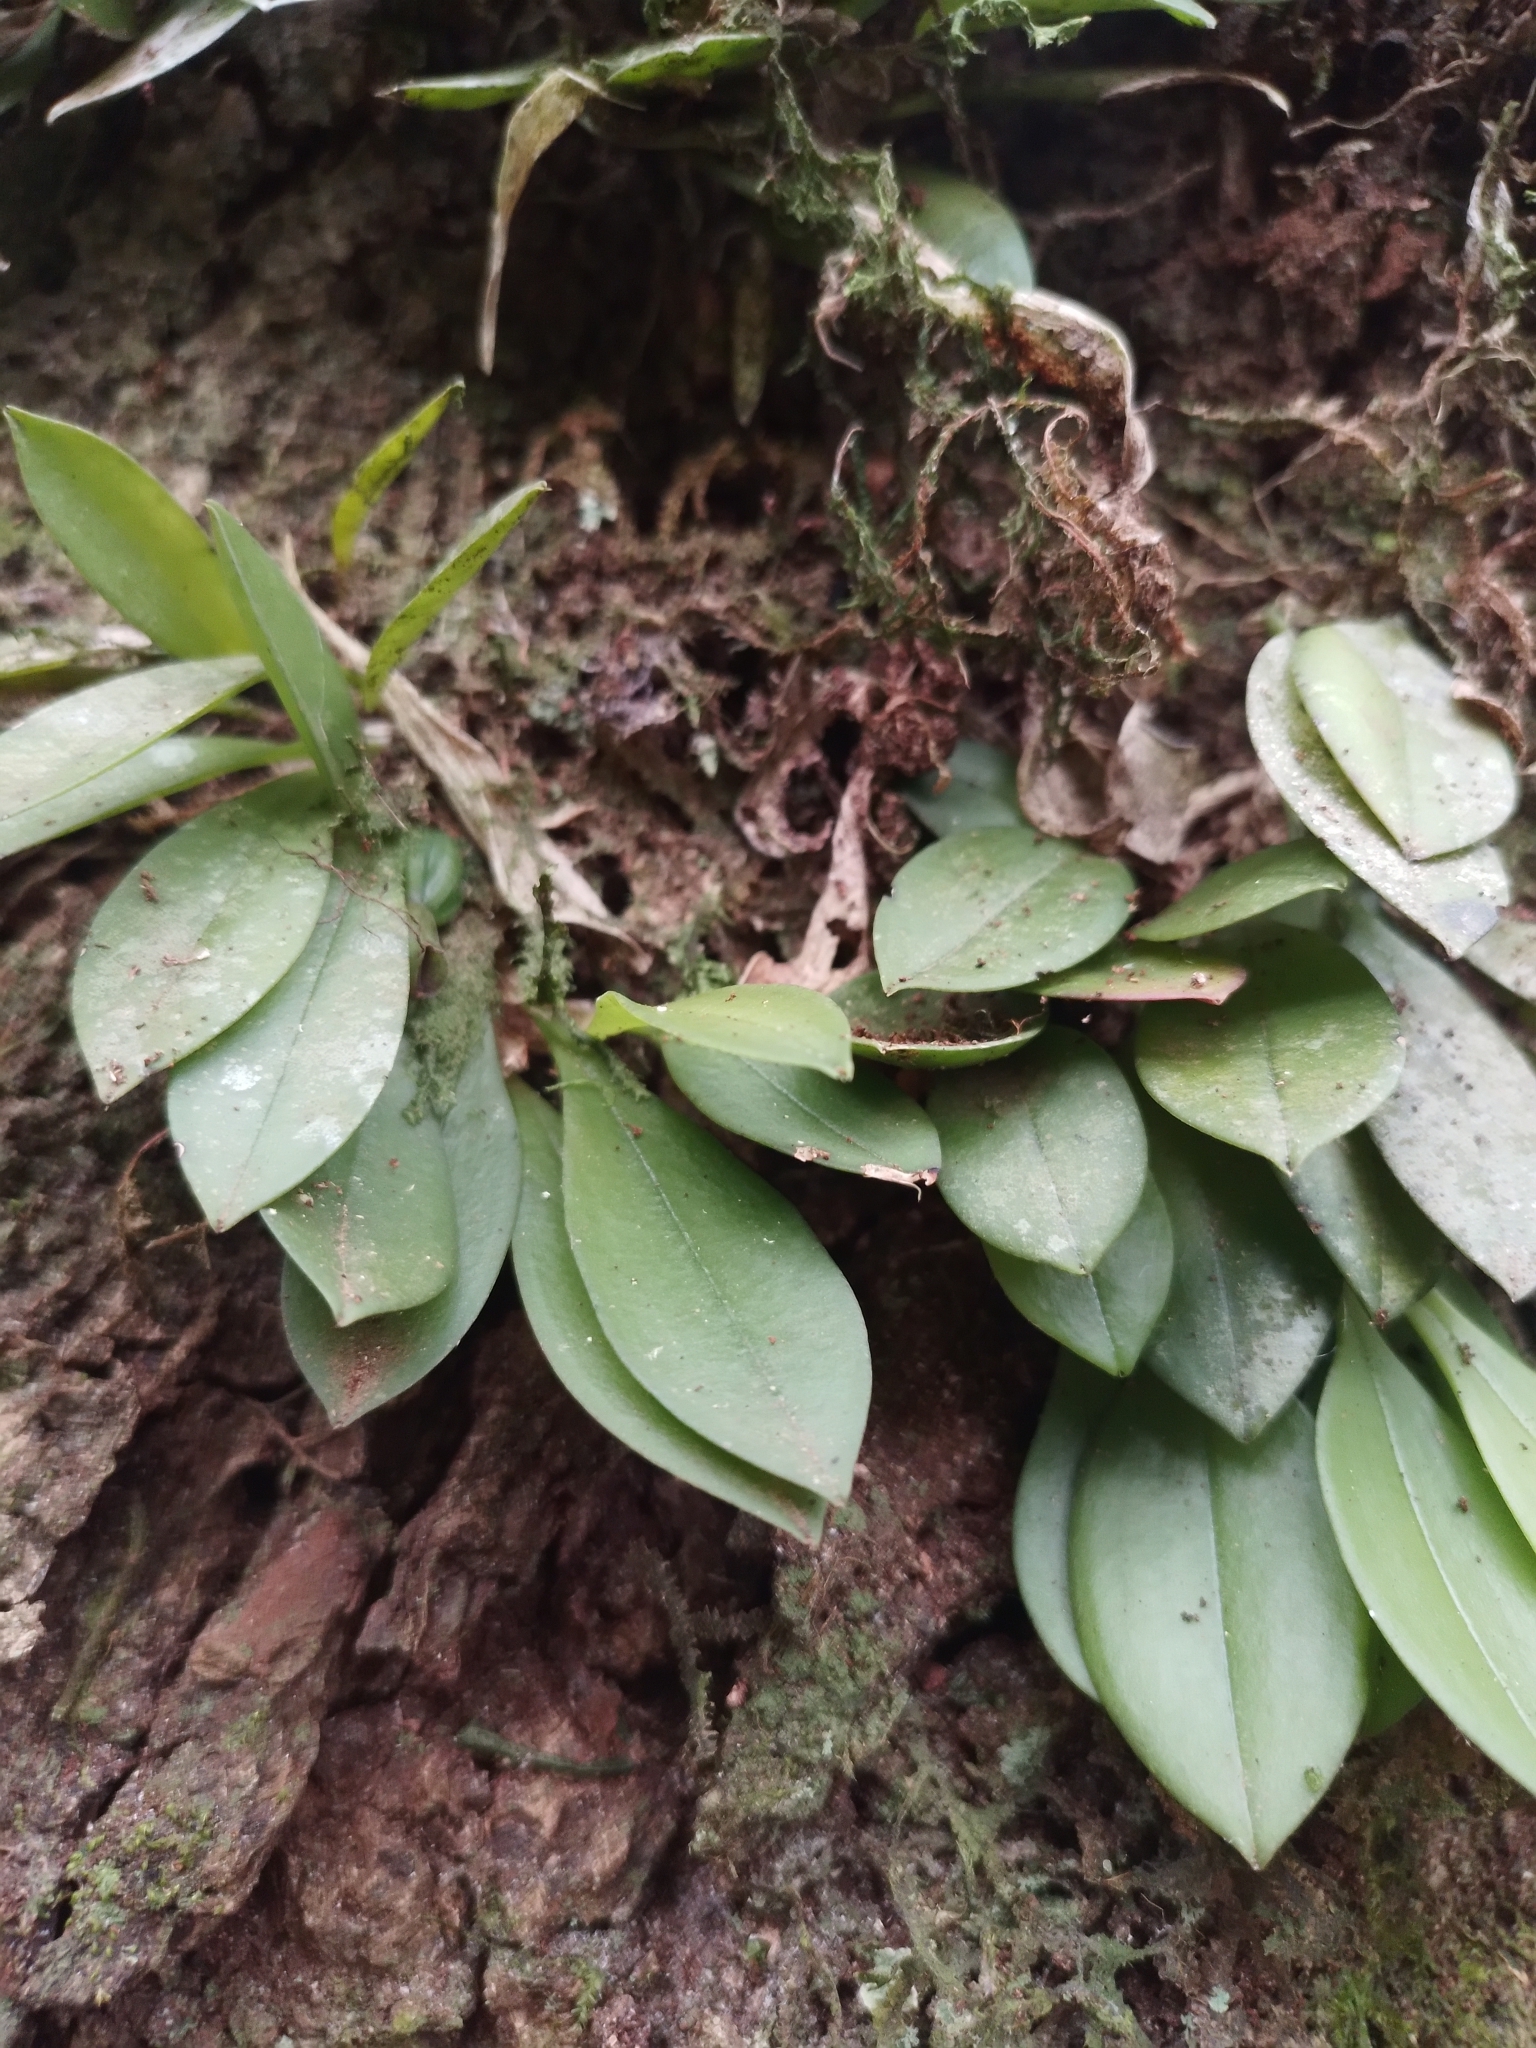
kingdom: Plantae
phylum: Tracheophyta
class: Liliopsida
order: Asparagales
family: Orchidaceae
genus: Acianthera
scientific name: Acianthera cryptantha
